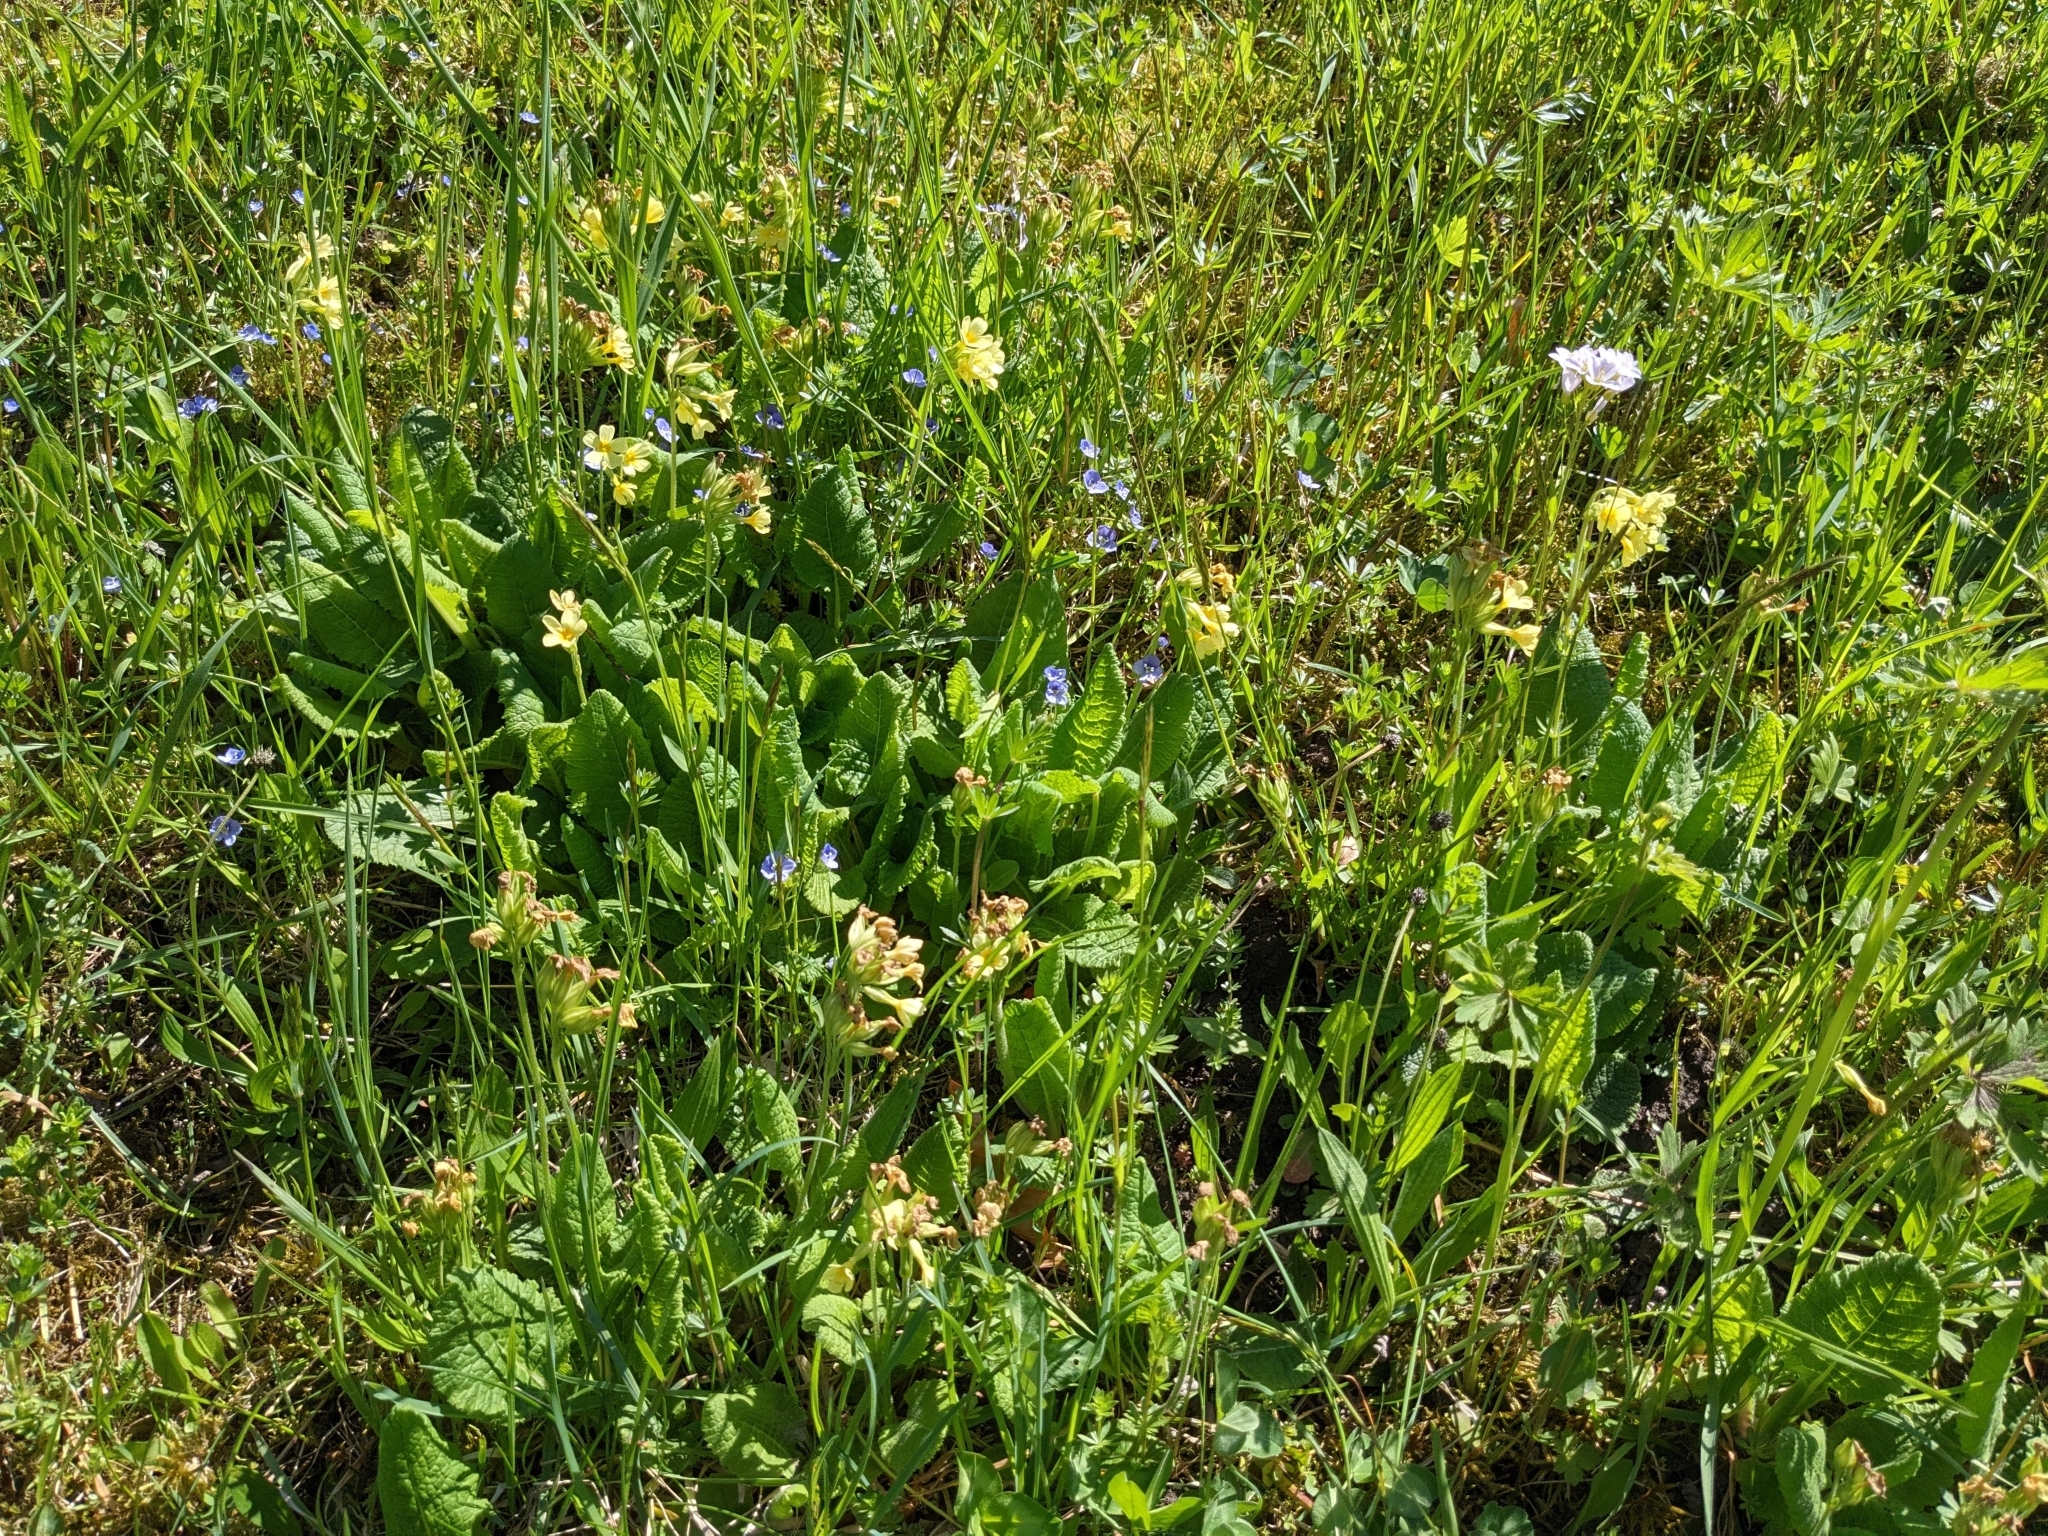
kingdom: Plantae
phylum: Tracheophyta
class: Magnoliopsida
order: Ericales
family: Primulaceae
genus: Primula
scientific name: Primula elatior
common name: Oxlip
